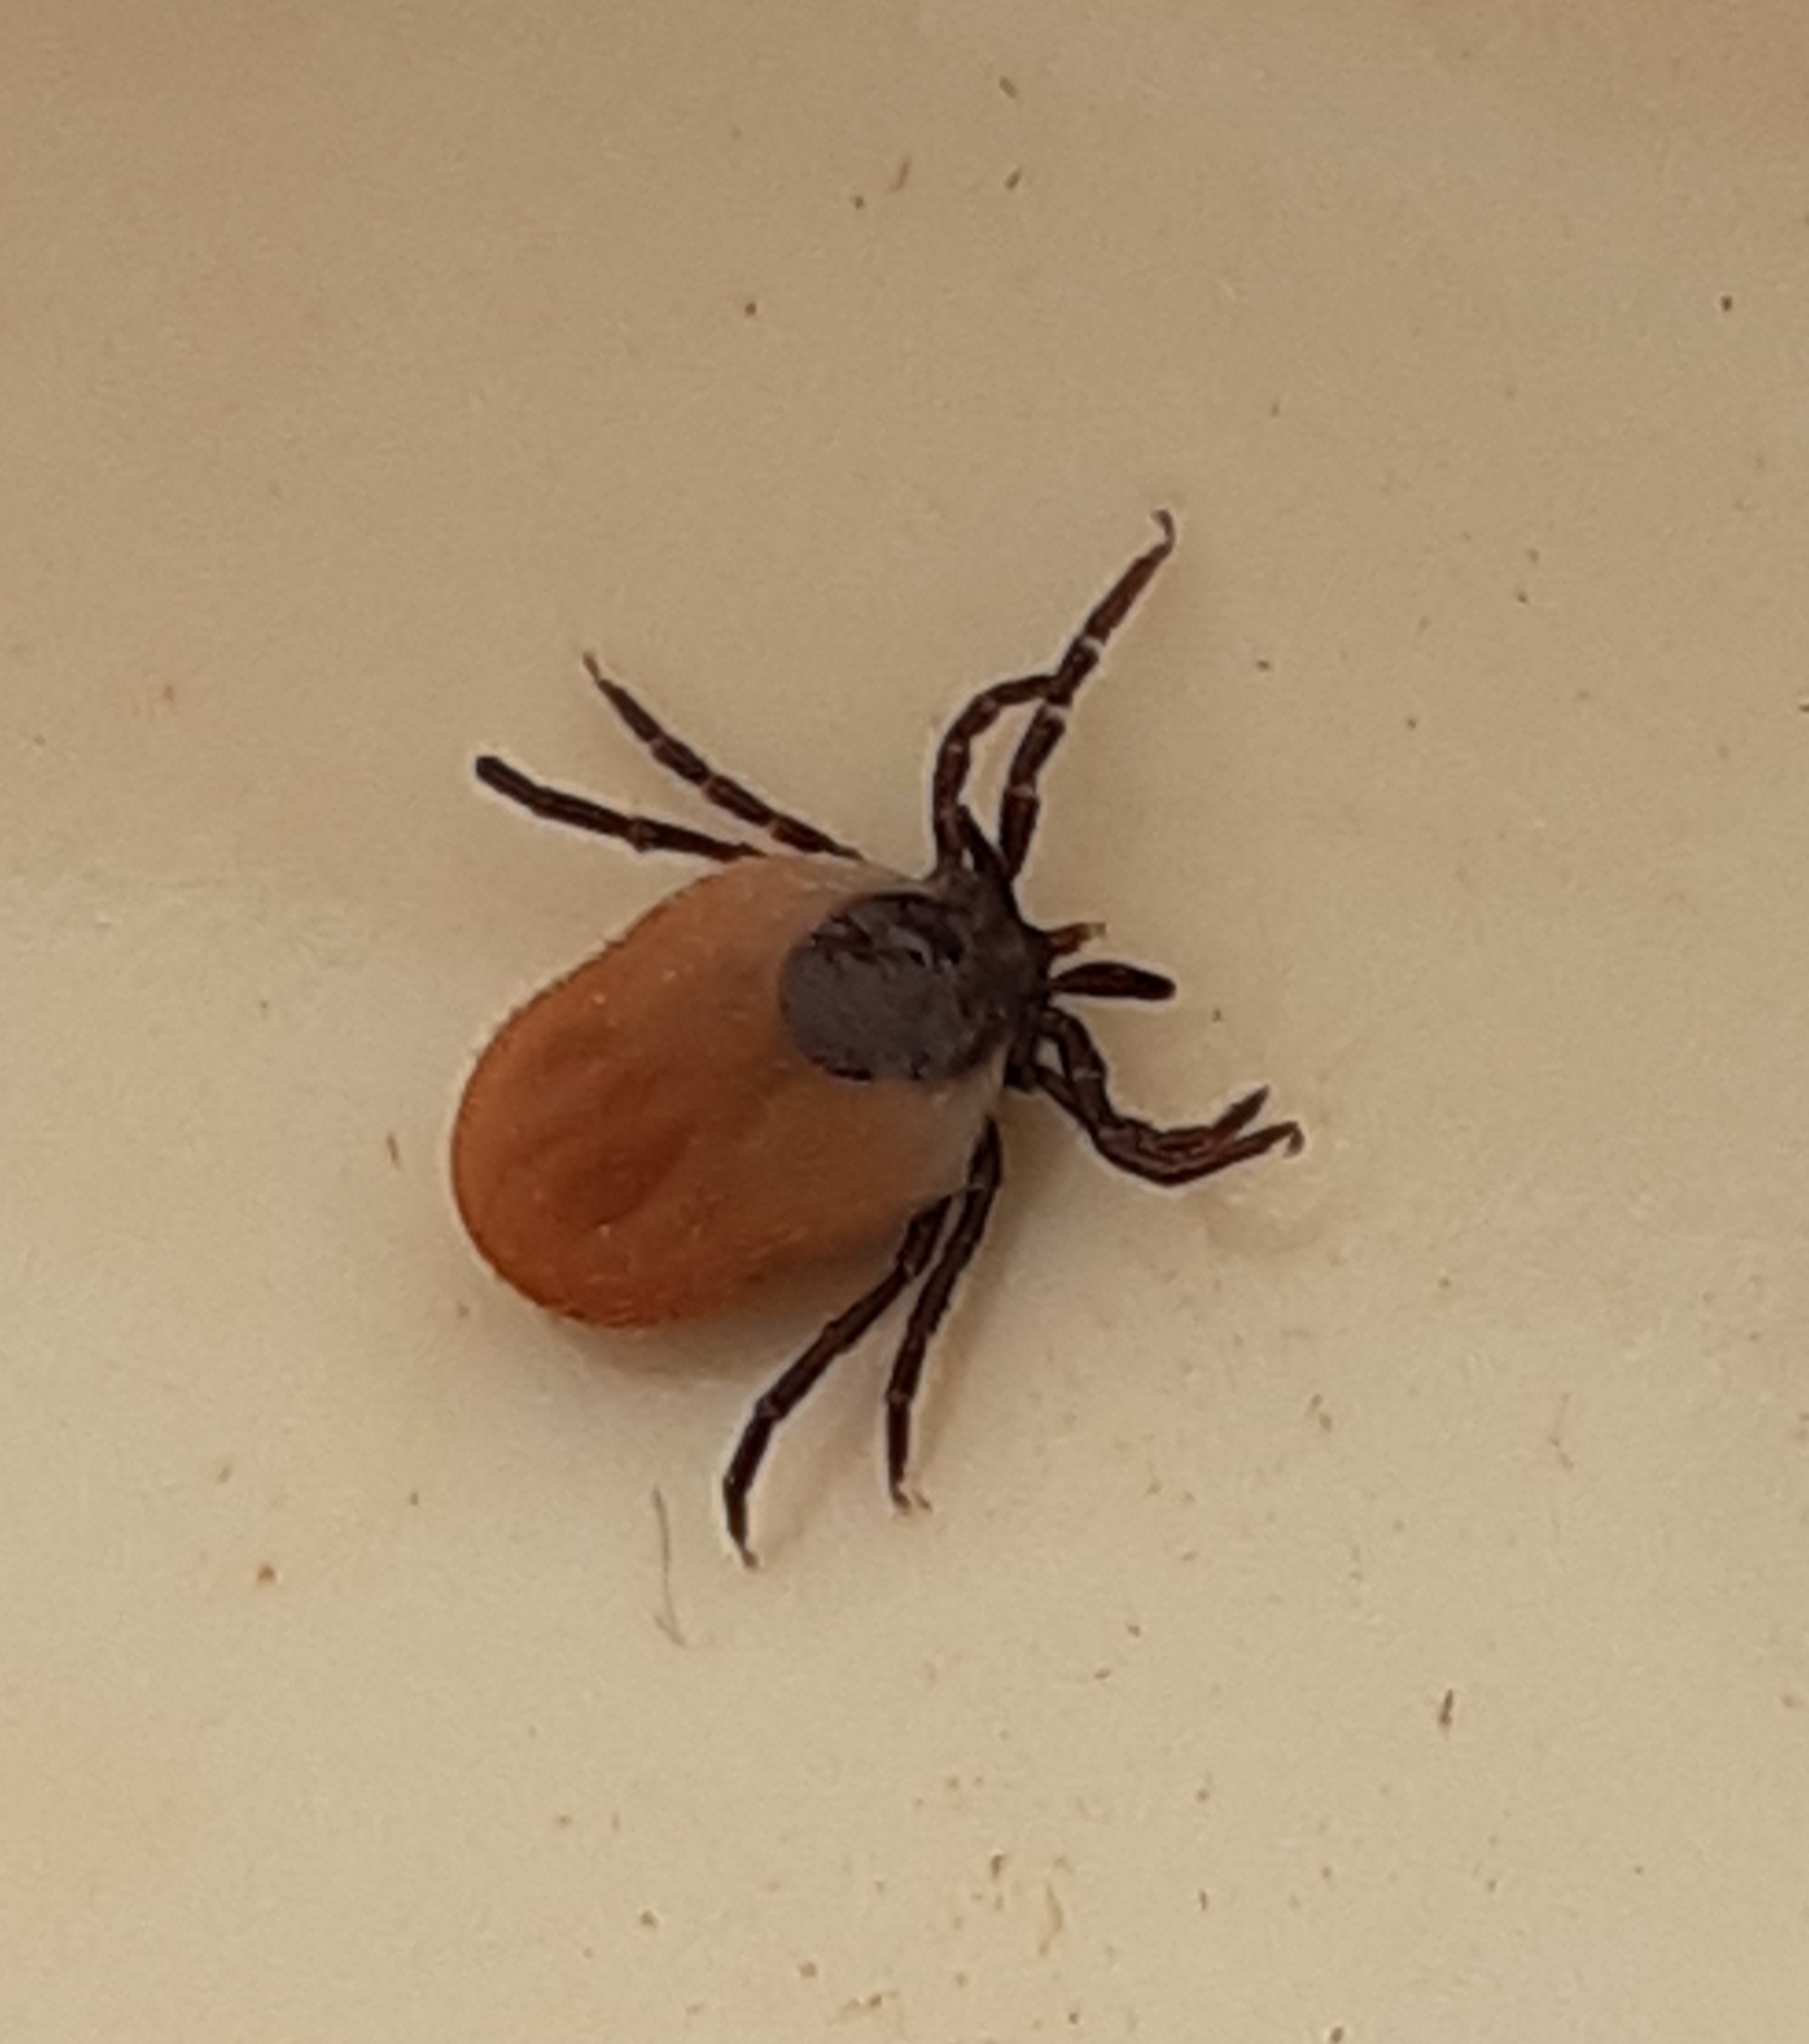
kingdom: Animalia
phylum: Arthropoda
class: Arachnida
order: Ixodida
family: Ixodidae
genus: Ixodes
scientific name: Ixodes ricinus
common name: Castor bean tick
